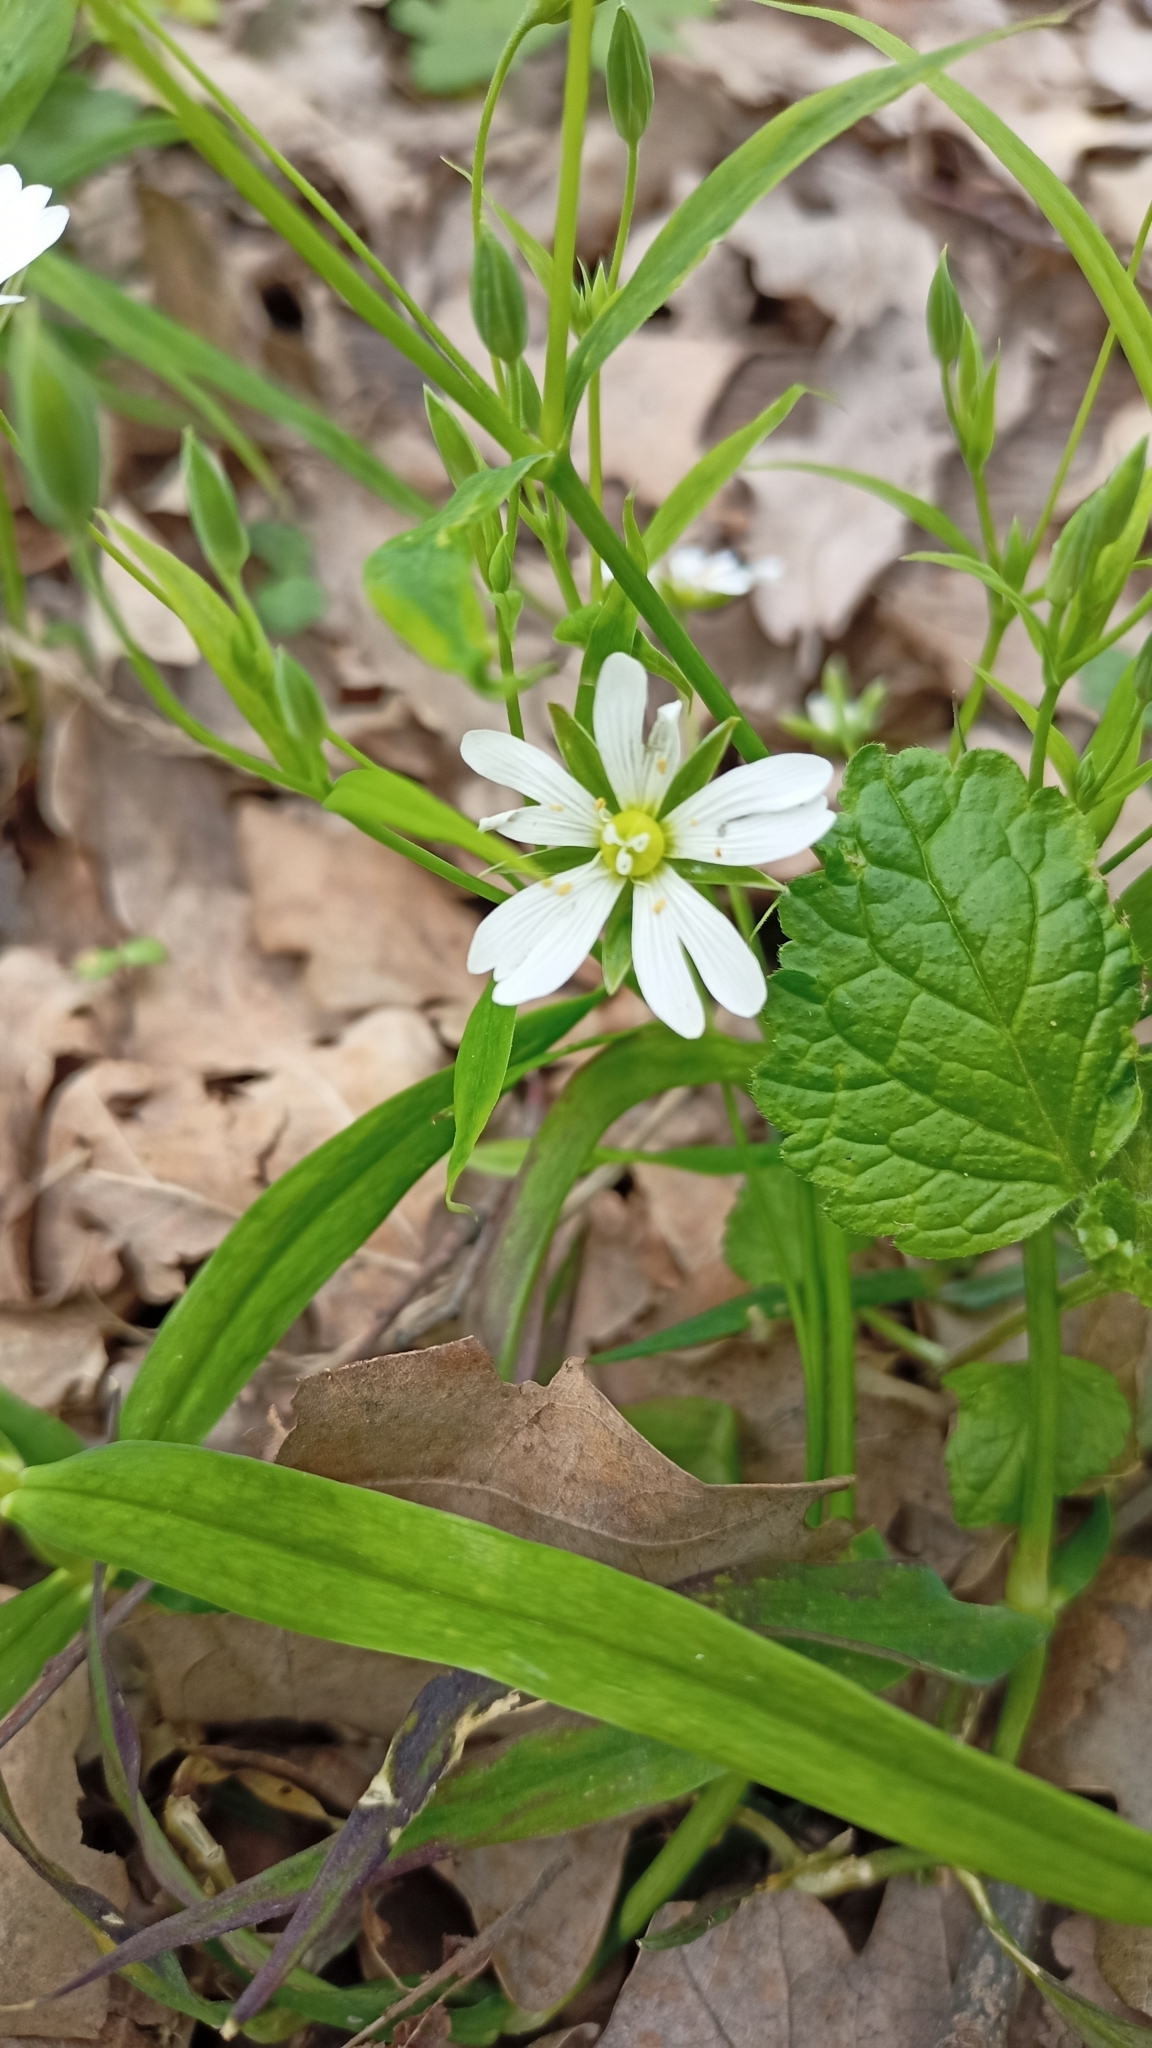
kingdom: Plantae
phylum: Tracheophyta
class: Magnoliopsida
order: Caryophyllales
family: Caryophyllaceae
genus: Rabelera
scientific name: Rabelera holostea
